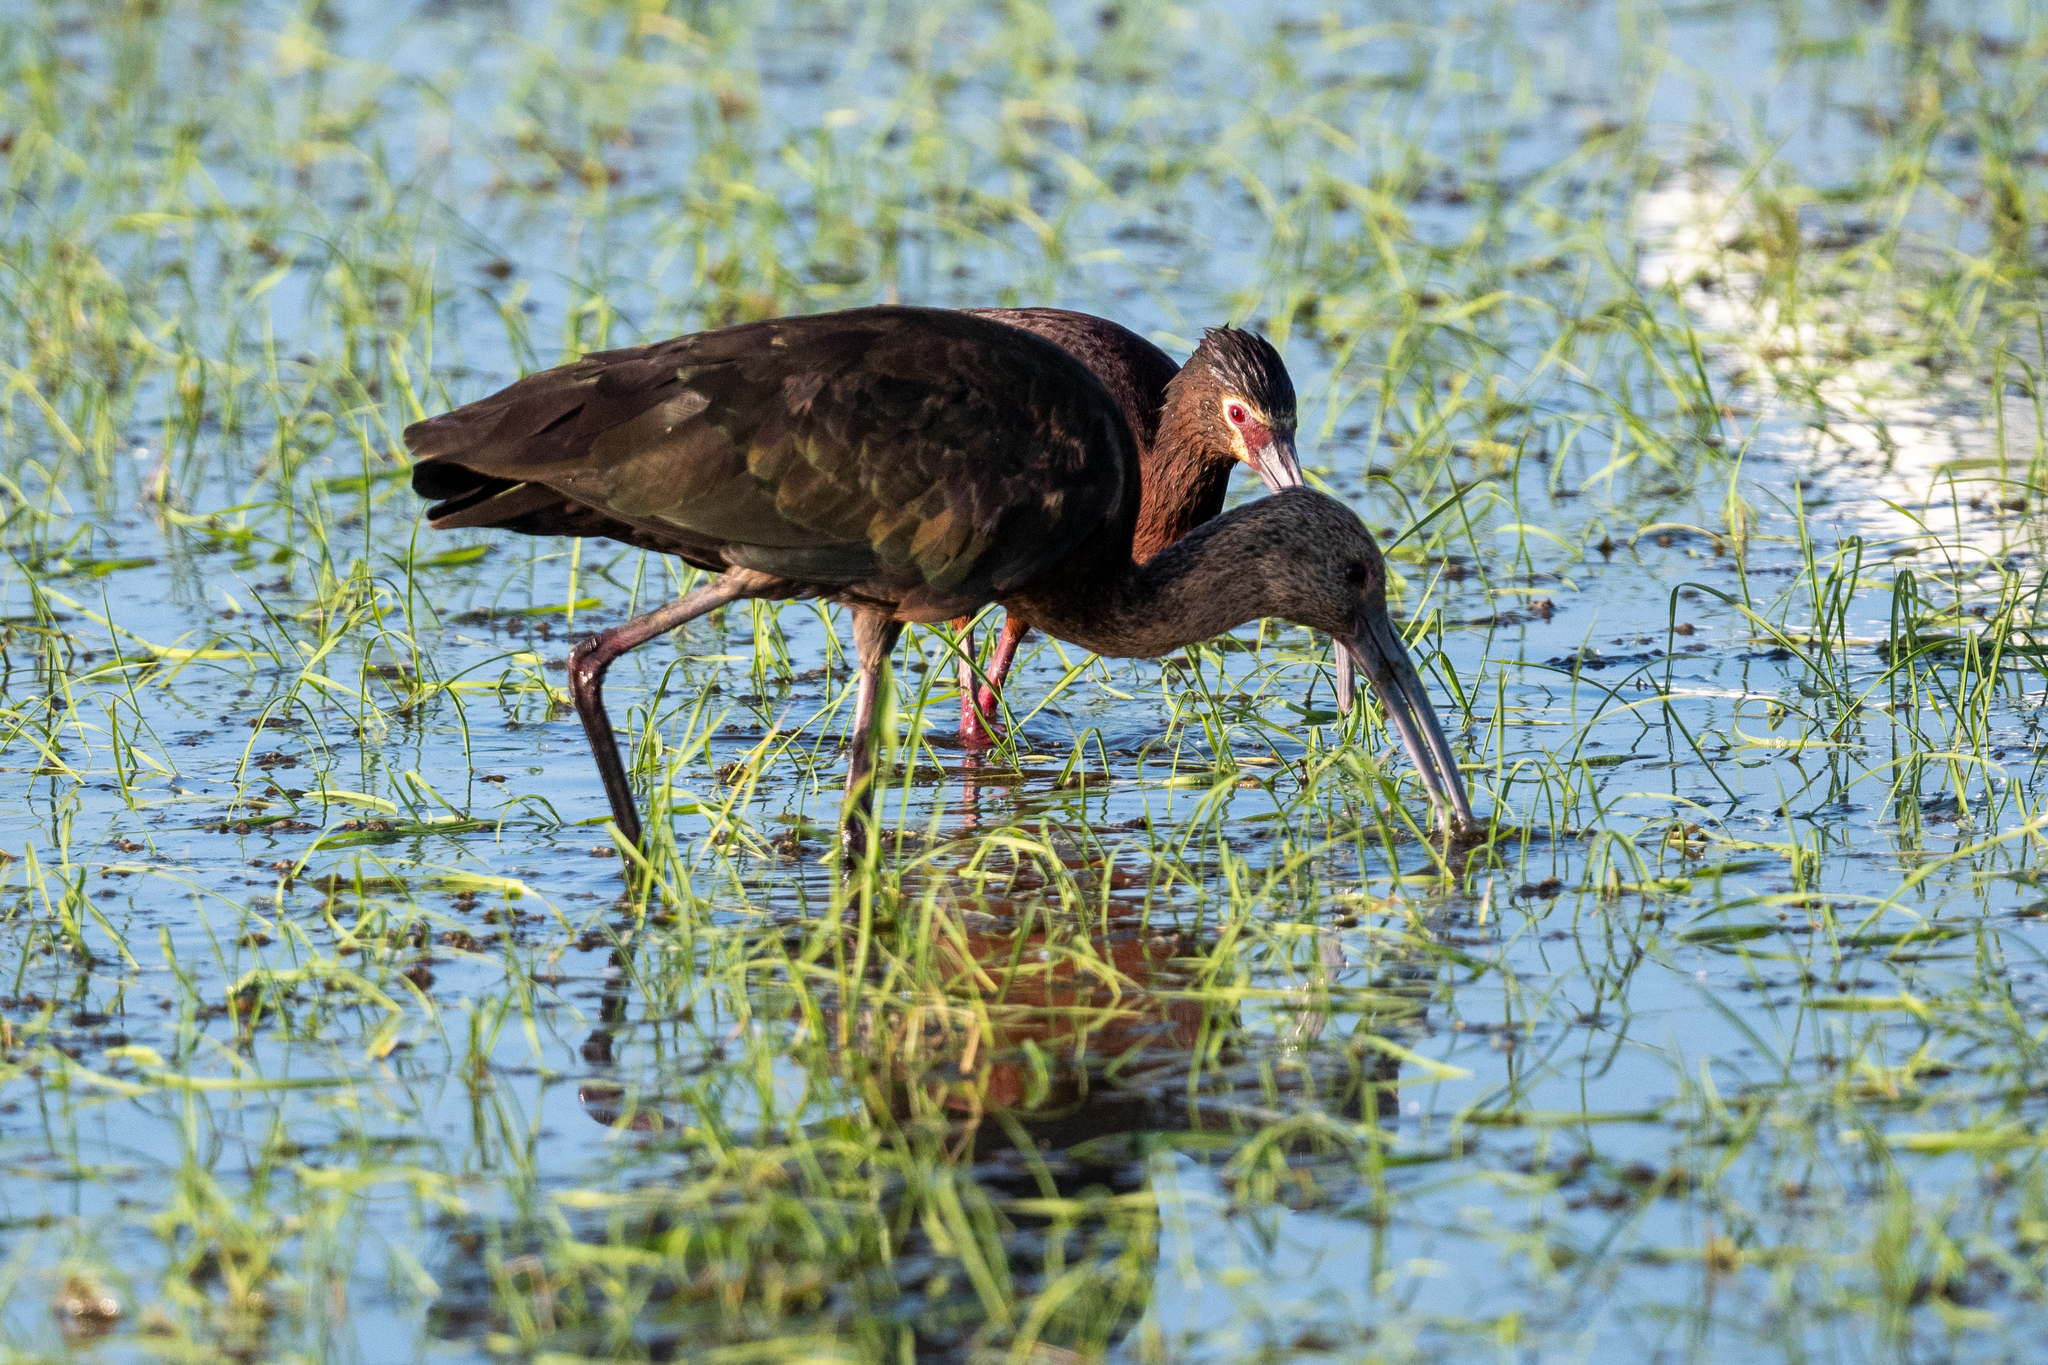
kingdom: Animalia
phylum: Chordata
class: Aves
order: Pelecaniformes
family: Threskiornithidae
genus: Plegadis
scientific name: Plegadis chihi
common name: White-faced ibis
